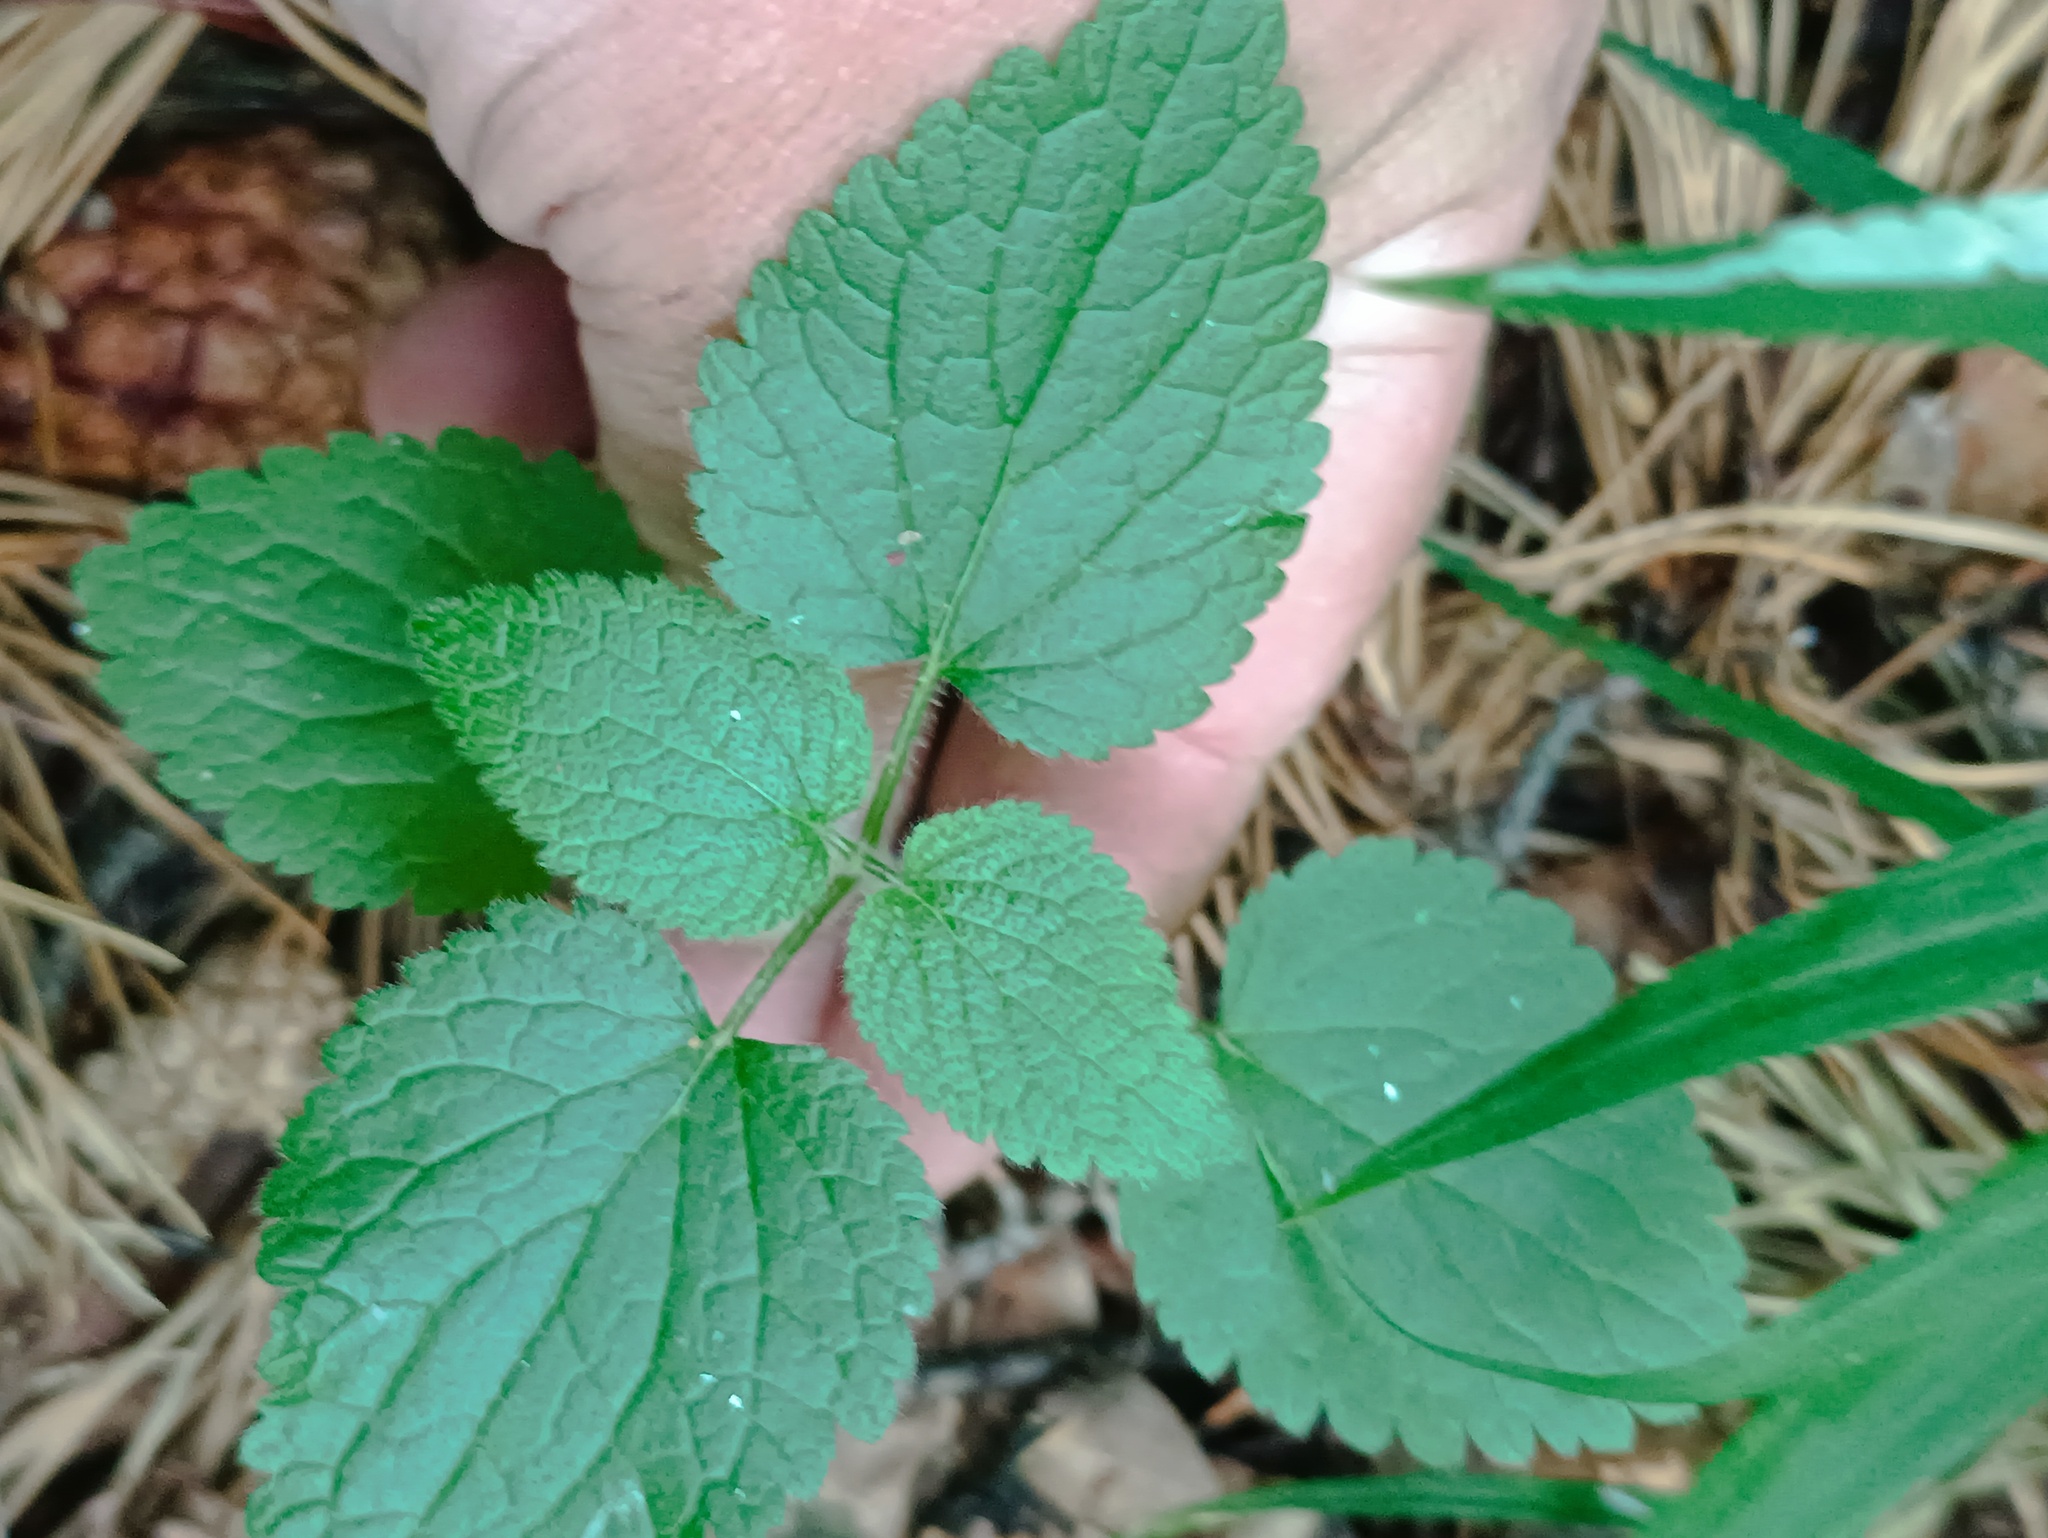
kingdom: Plantae
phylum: Tracheophyta
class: Magnoliopsida
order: Lamiales
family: Lamiaceae
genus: Stachys
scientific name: Stachys sylvatica
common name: Hedge woundwort
